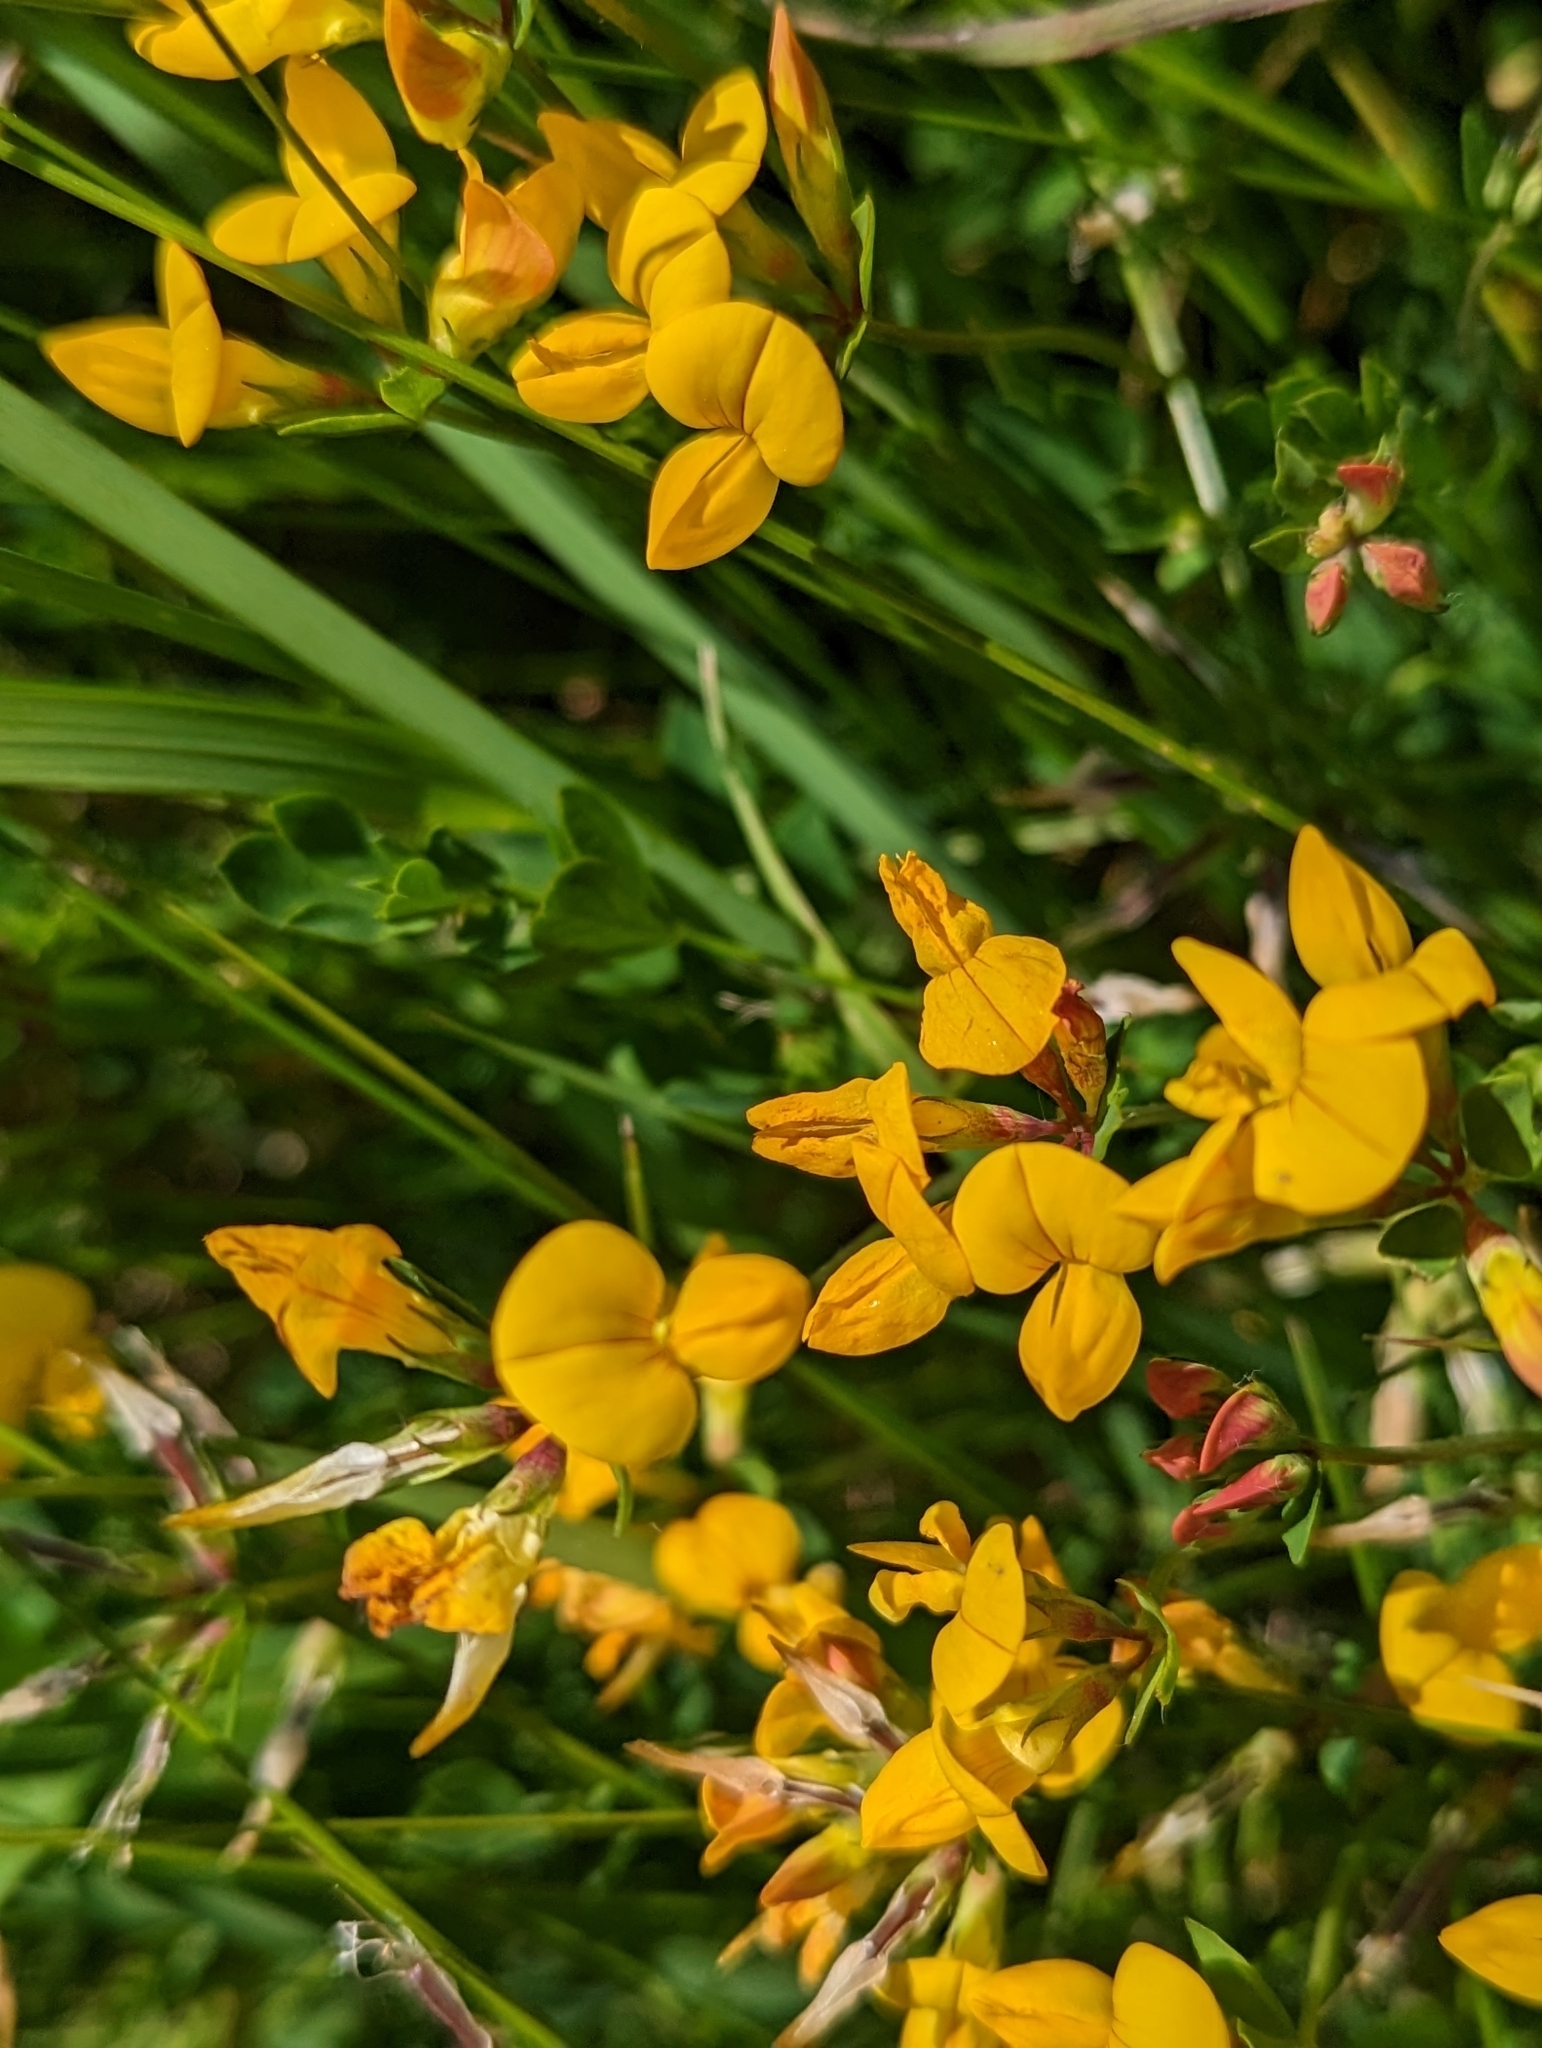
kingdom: Plantae
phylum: Tracheophyta
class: Magnoliopsida
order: Fabales
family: Fabaceae
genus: Lotus
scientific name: Lotus corniculatus
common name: Common bird's-foot-trefoil
